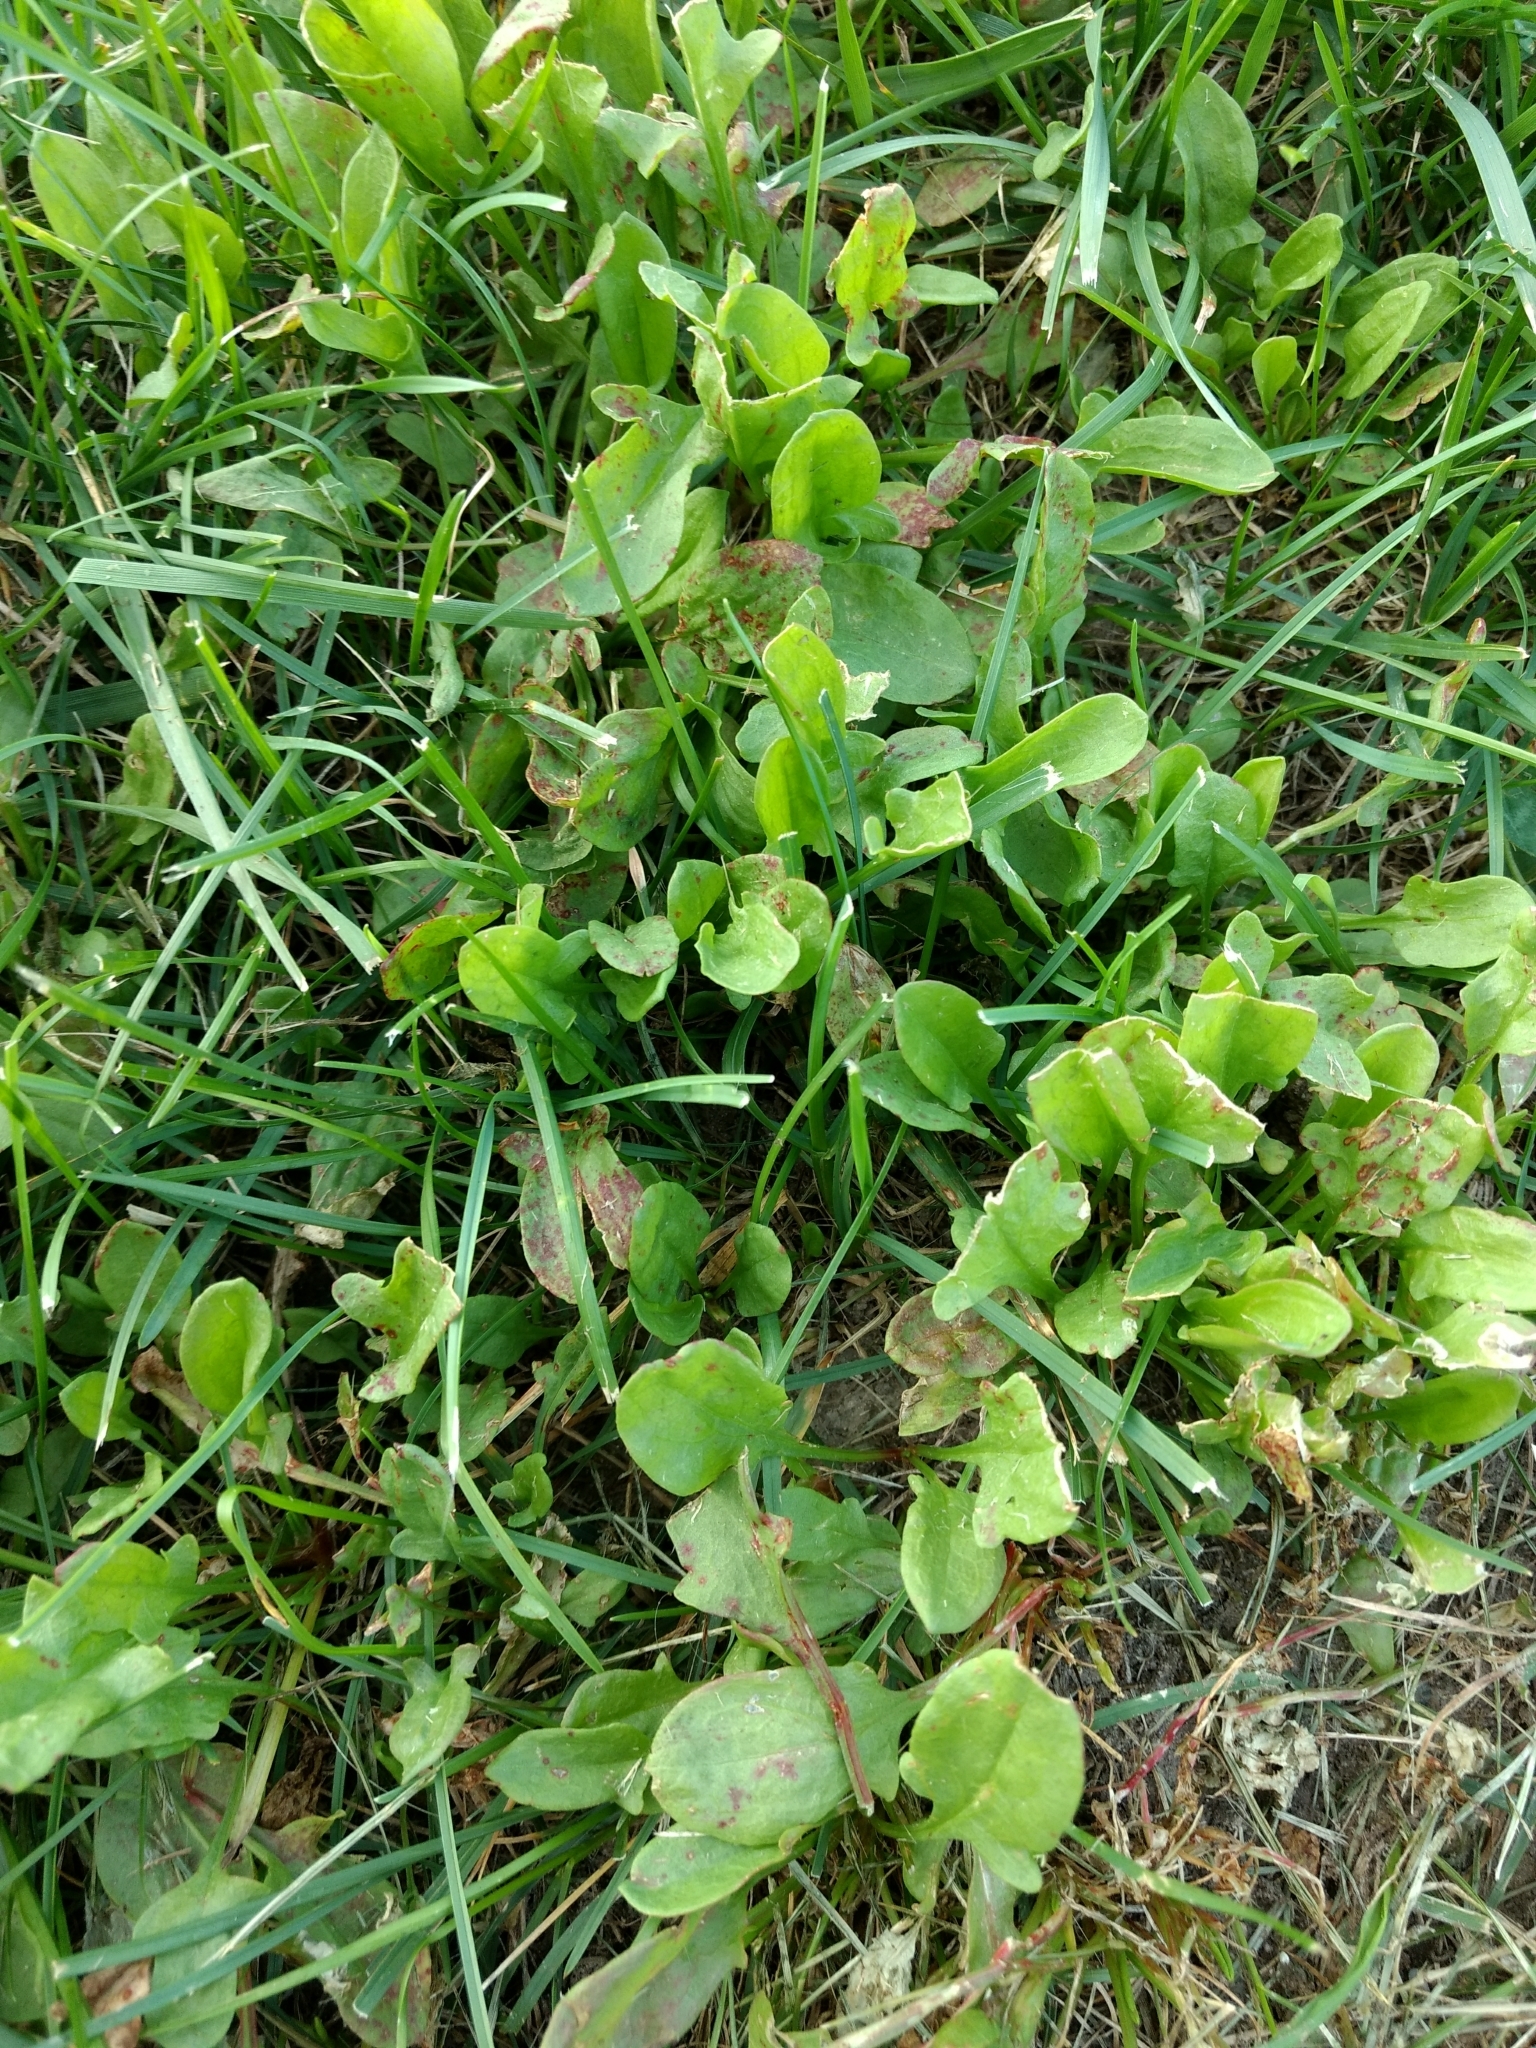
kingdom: Plantae
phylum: Tracheophyta
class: Magnoliopsida
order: Caryophyllales
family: Polygonaceae
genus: Rumex
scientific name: Rumex acetosella
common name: Common sheep sorrel
